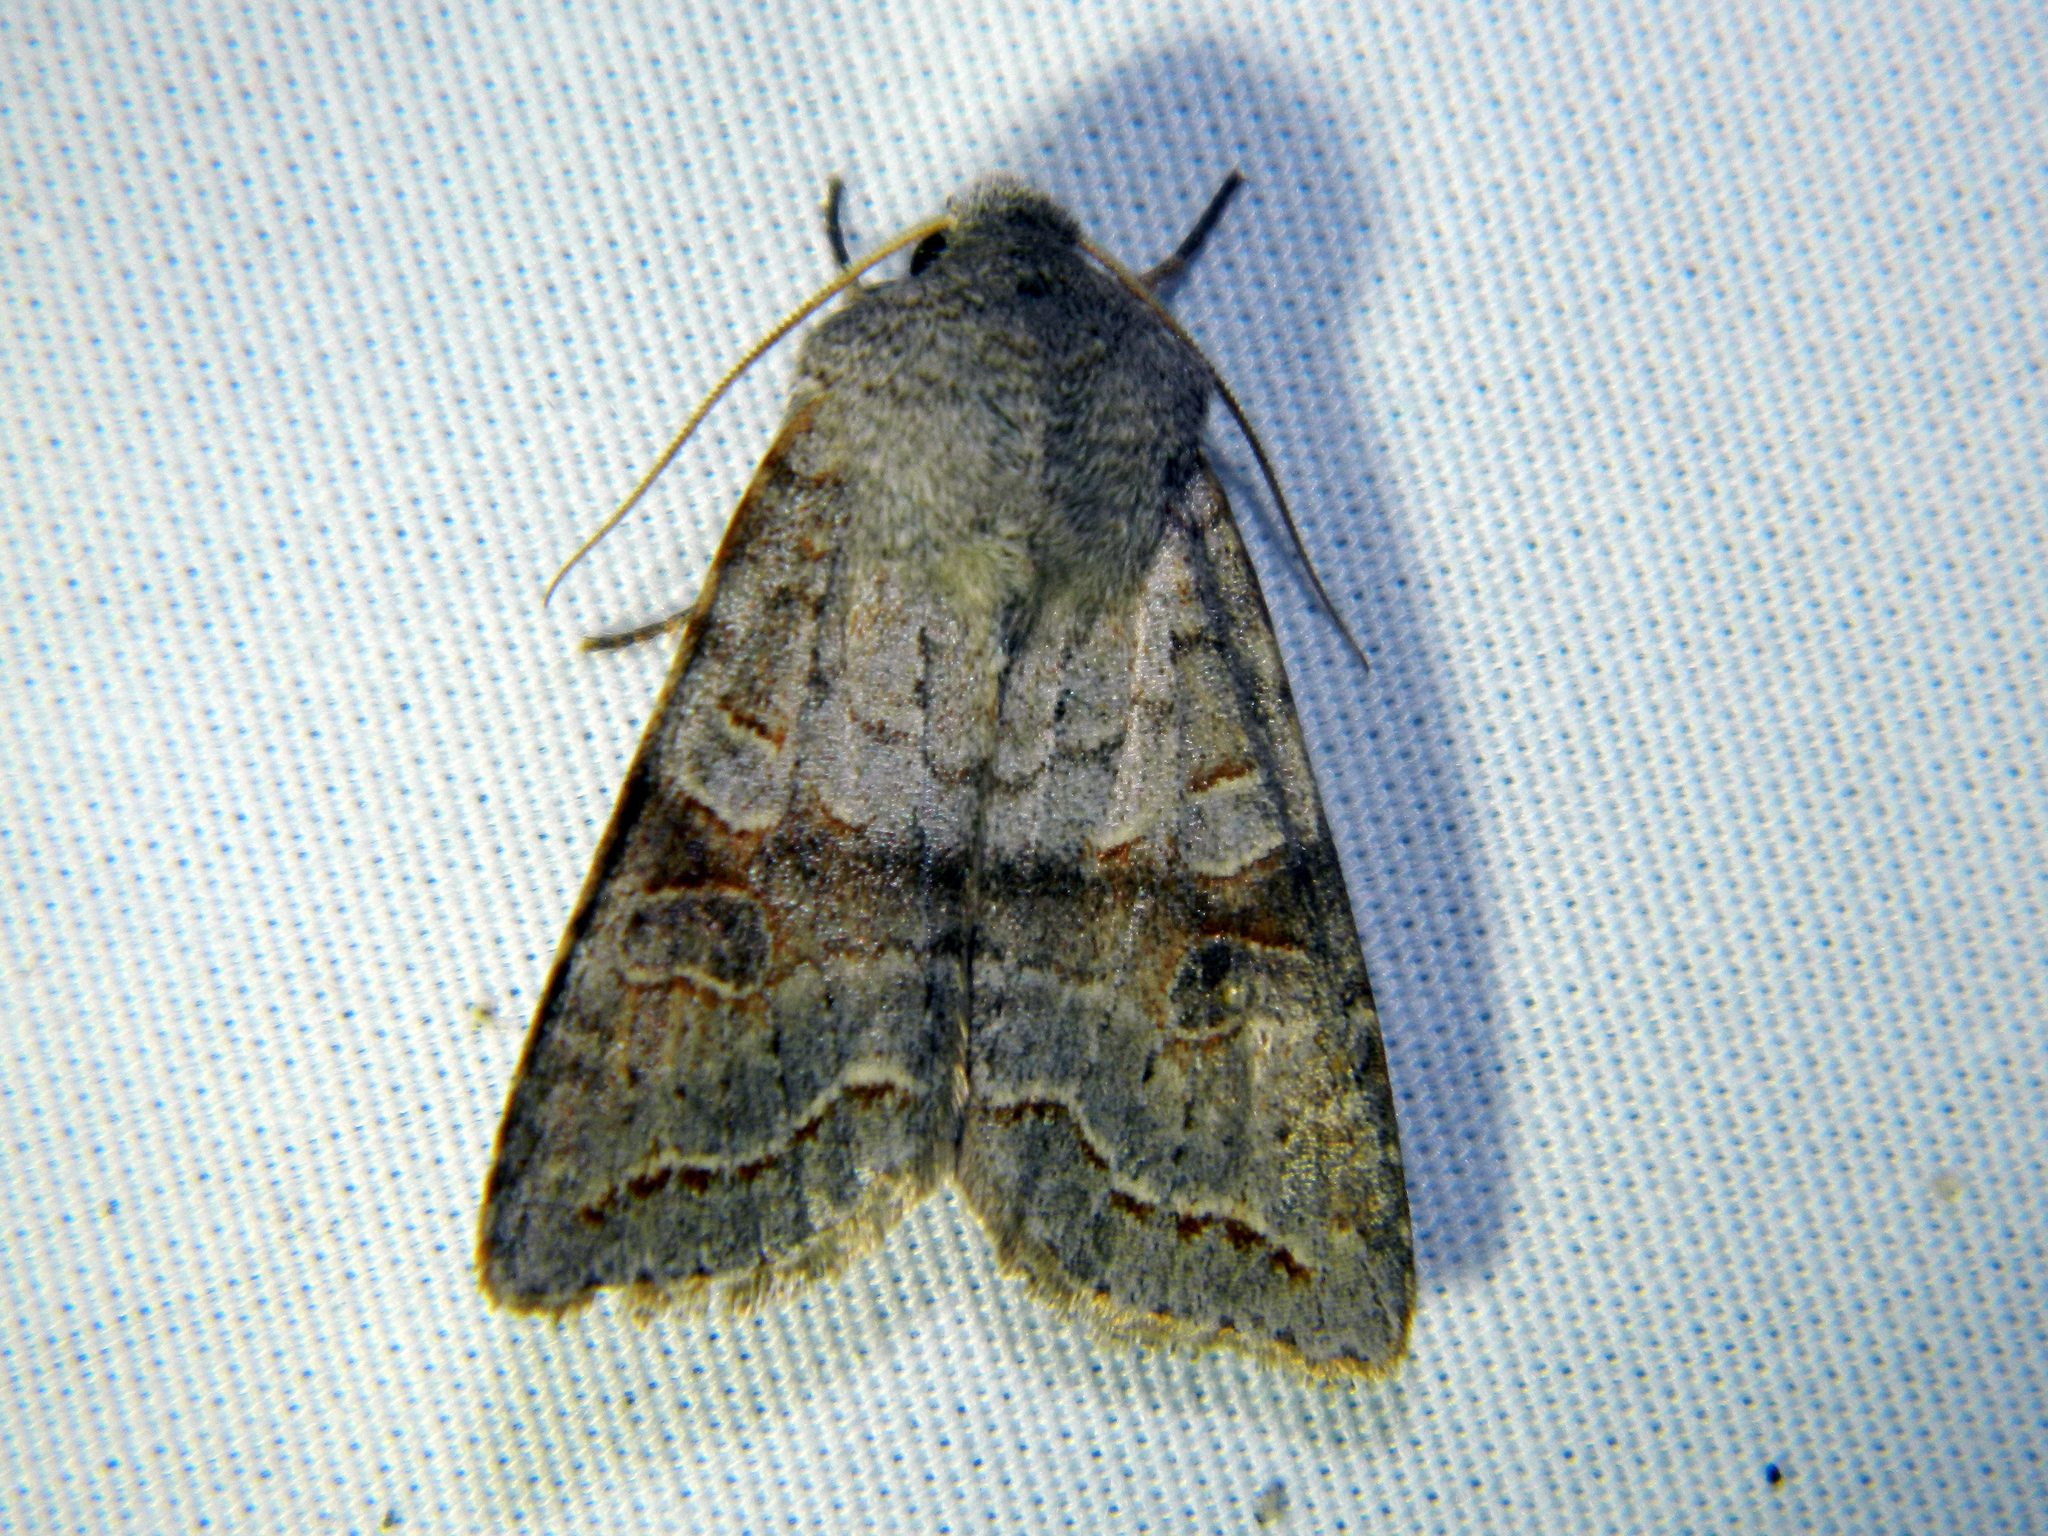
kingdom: Animalia
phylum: Arthropoda
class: Insecta
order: Lepidoptera
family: Noctuidae
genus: Orthosia
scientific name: Orthosia revicta
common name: Rusty whitesided caterpillar
